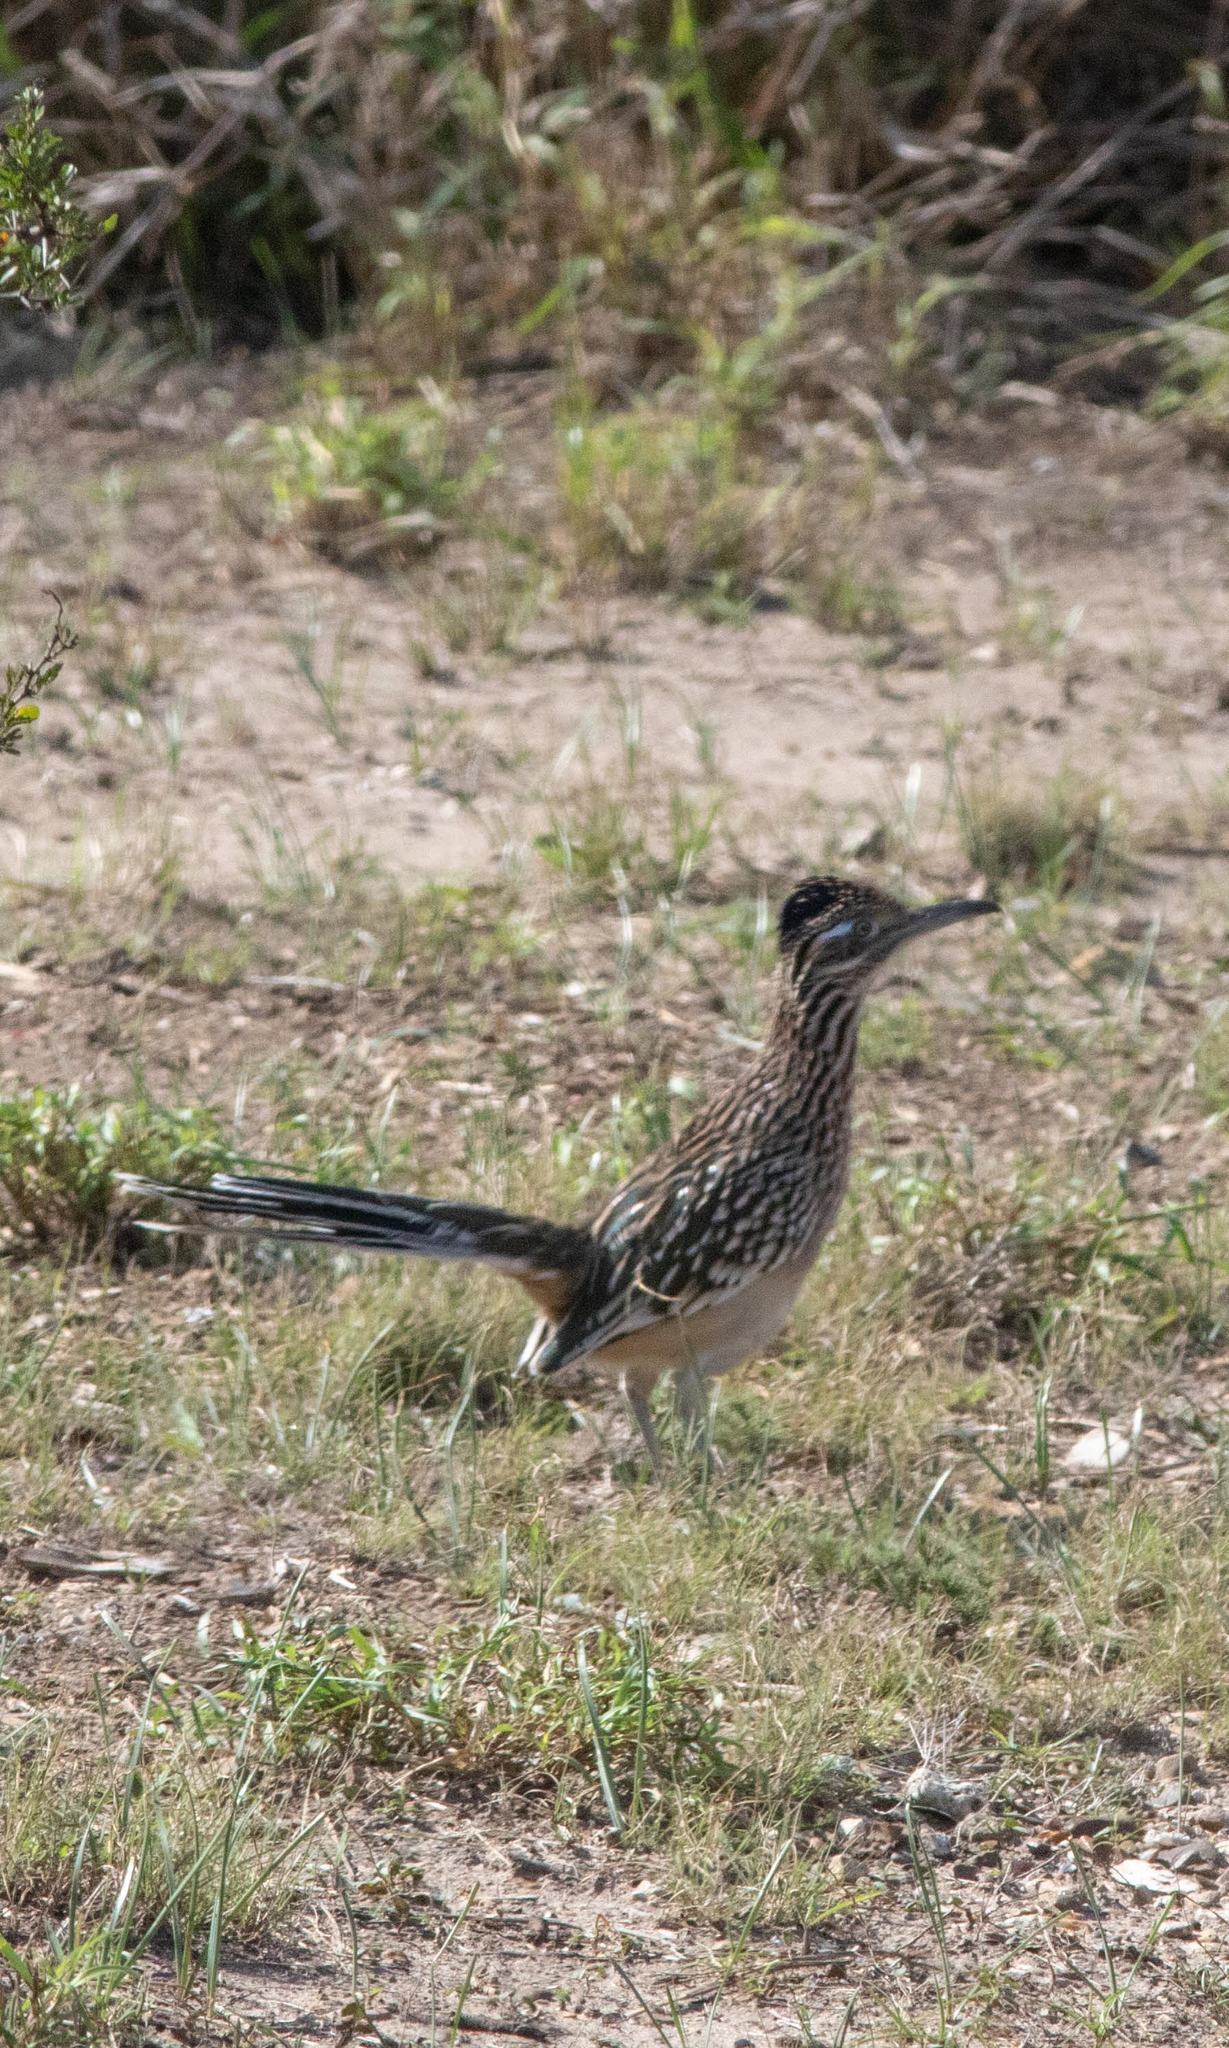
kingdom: Animalia
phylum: Chordata
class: Aves
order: Cuculiformes
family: Cuculidae
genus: Geococcyx
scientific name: Geococcyx californianus
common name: Greater roadrunner
